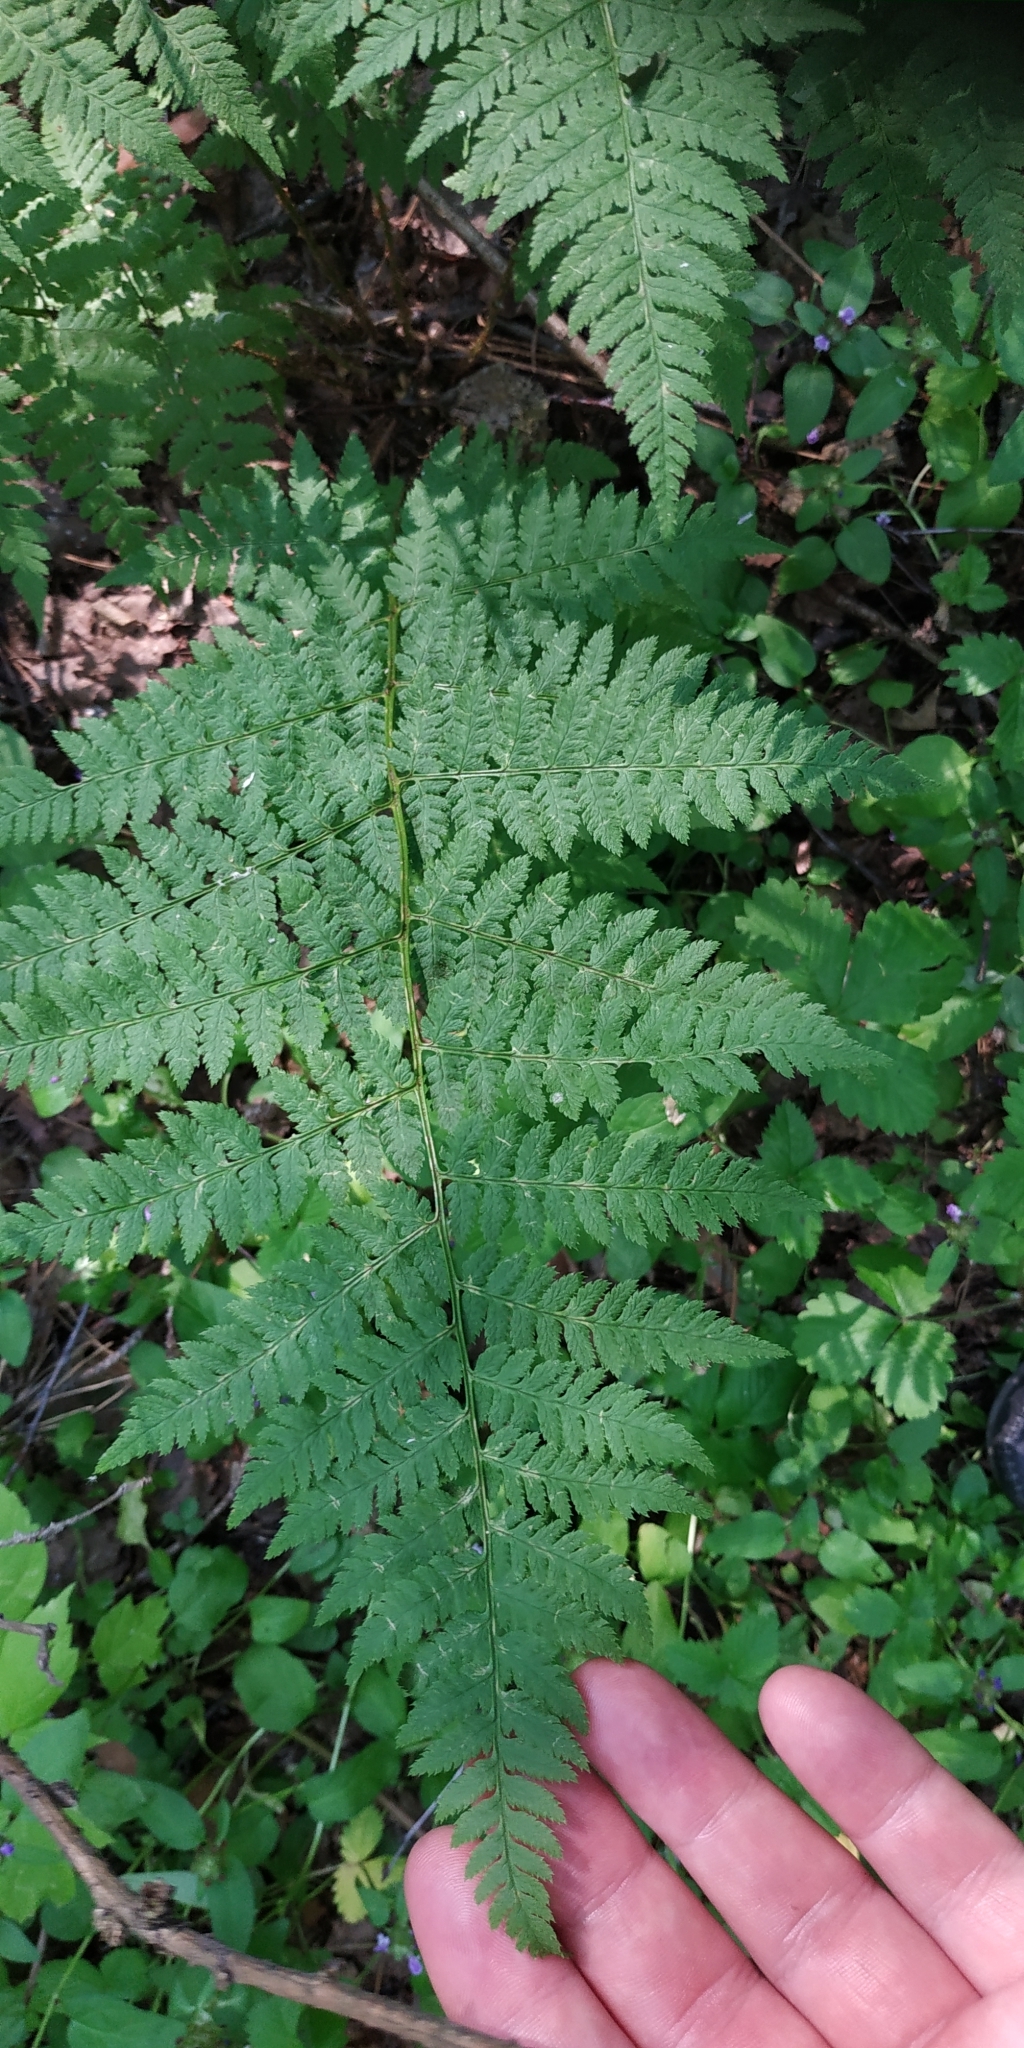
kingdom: Plantae
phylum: Tracheophyta
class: Polypodiopsida
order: Polypodiales
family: Dryopteridaceae
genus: Dryopteris
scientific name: Dryopteris carthusiana
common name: Narrow buckler-fern
